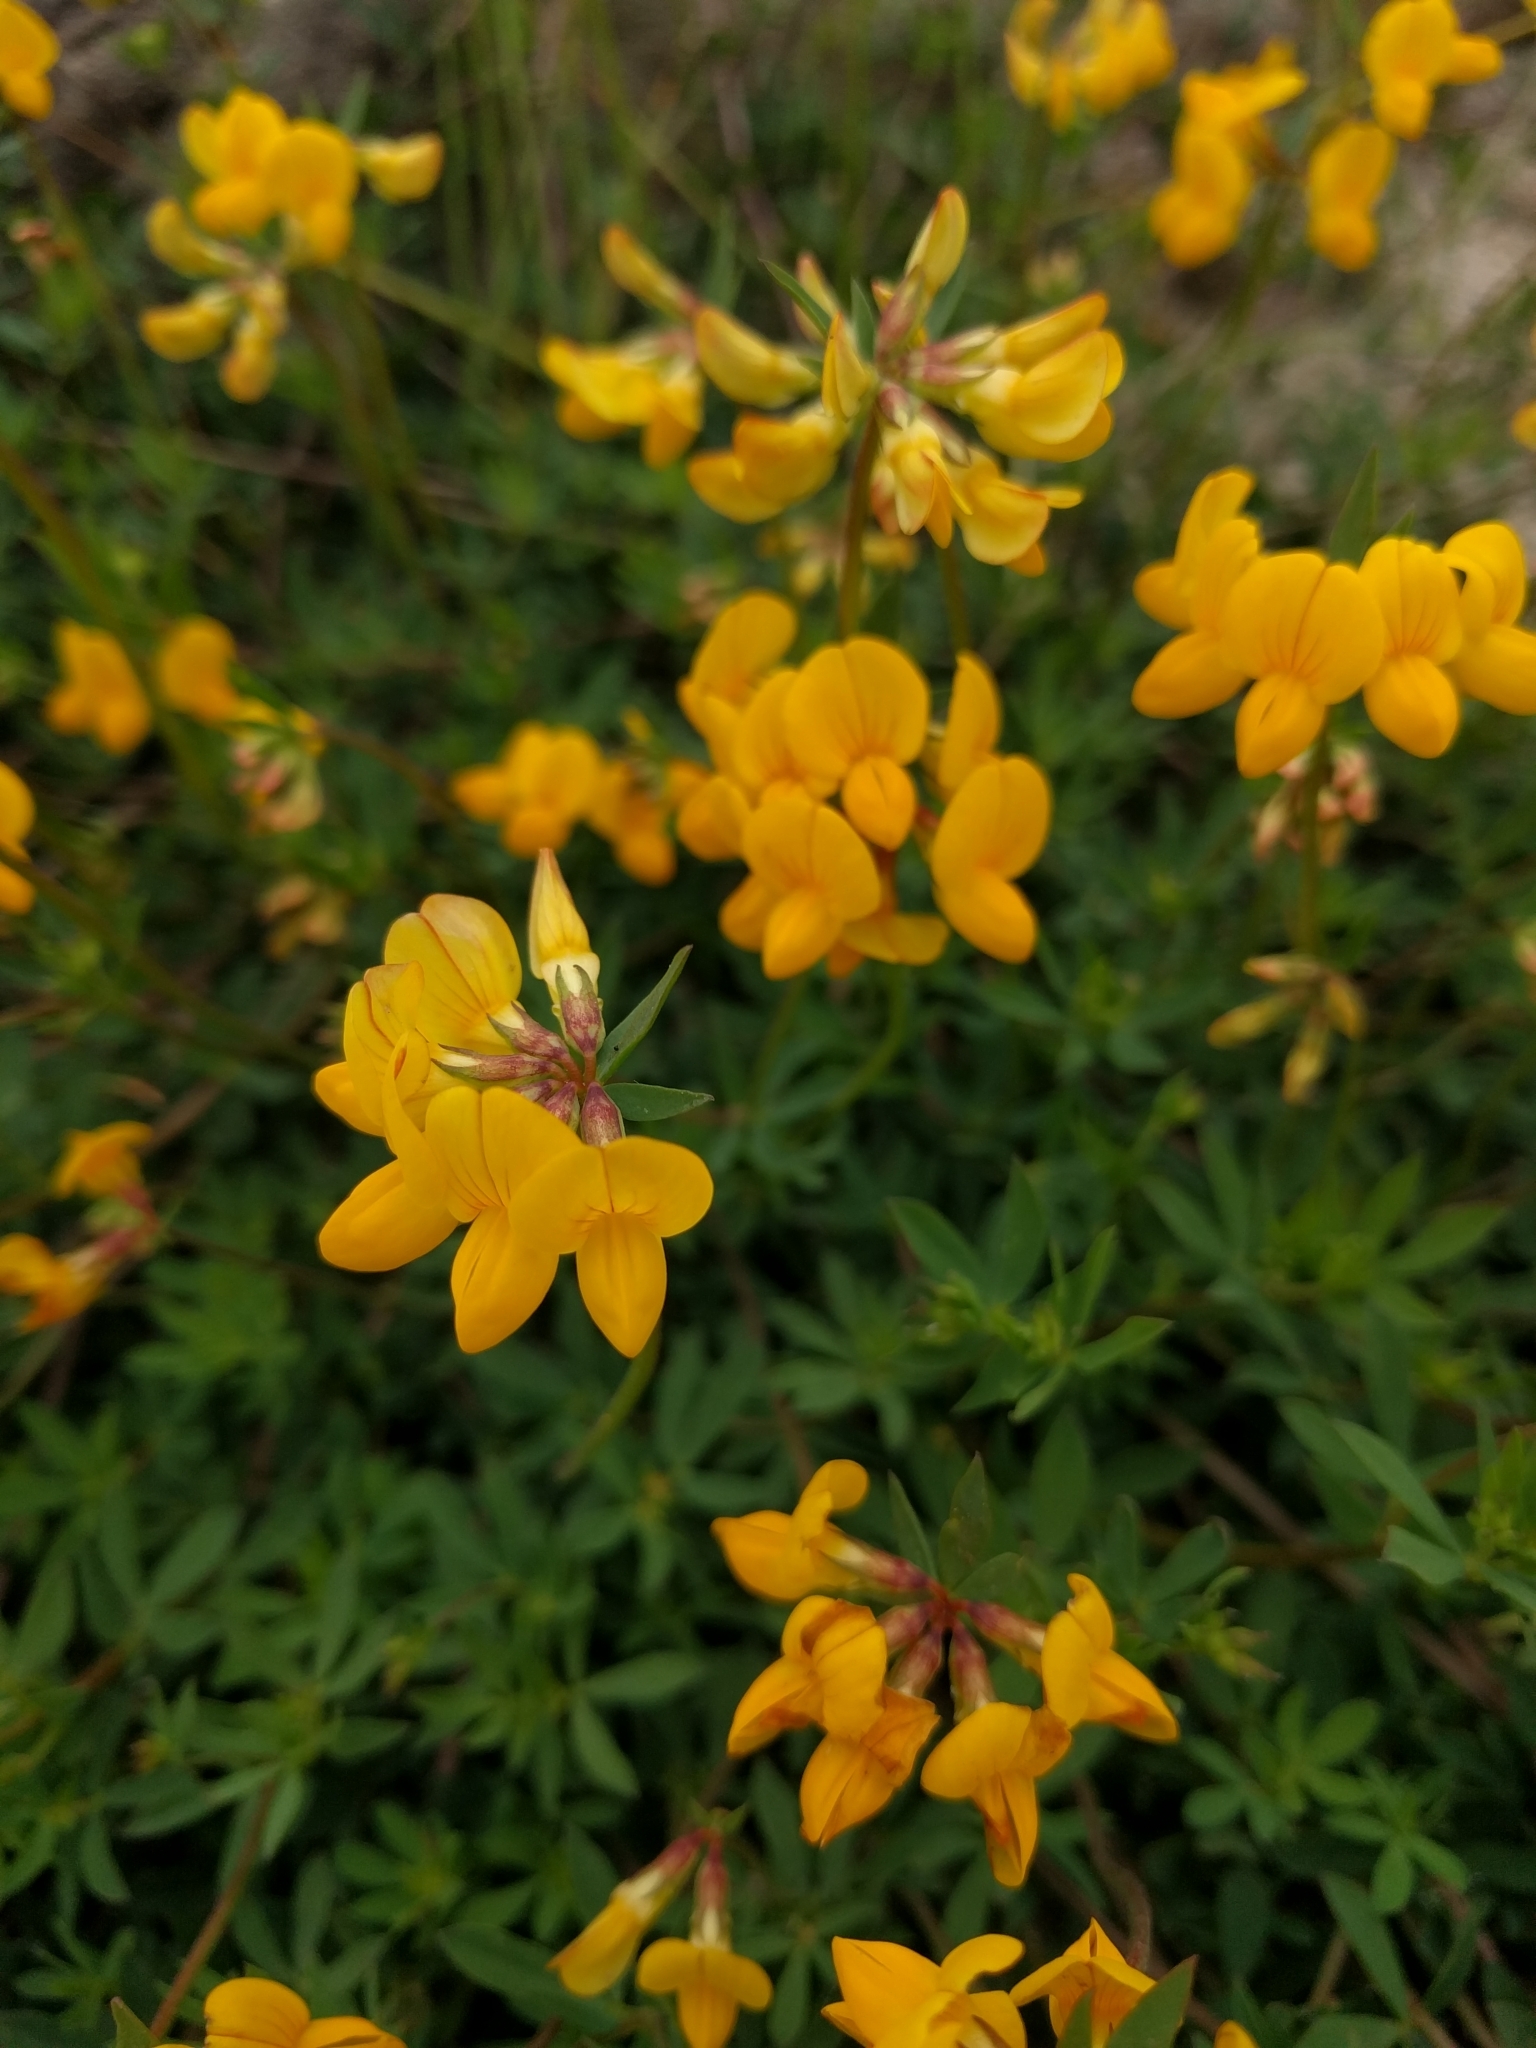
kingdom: Plantae
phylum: Tracheophyta
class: Magnoliopsida
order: Fabales
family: Fabaceae
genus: Lotus
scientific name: Lotus corniculatus
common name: Common bird's-foot-trefoil
